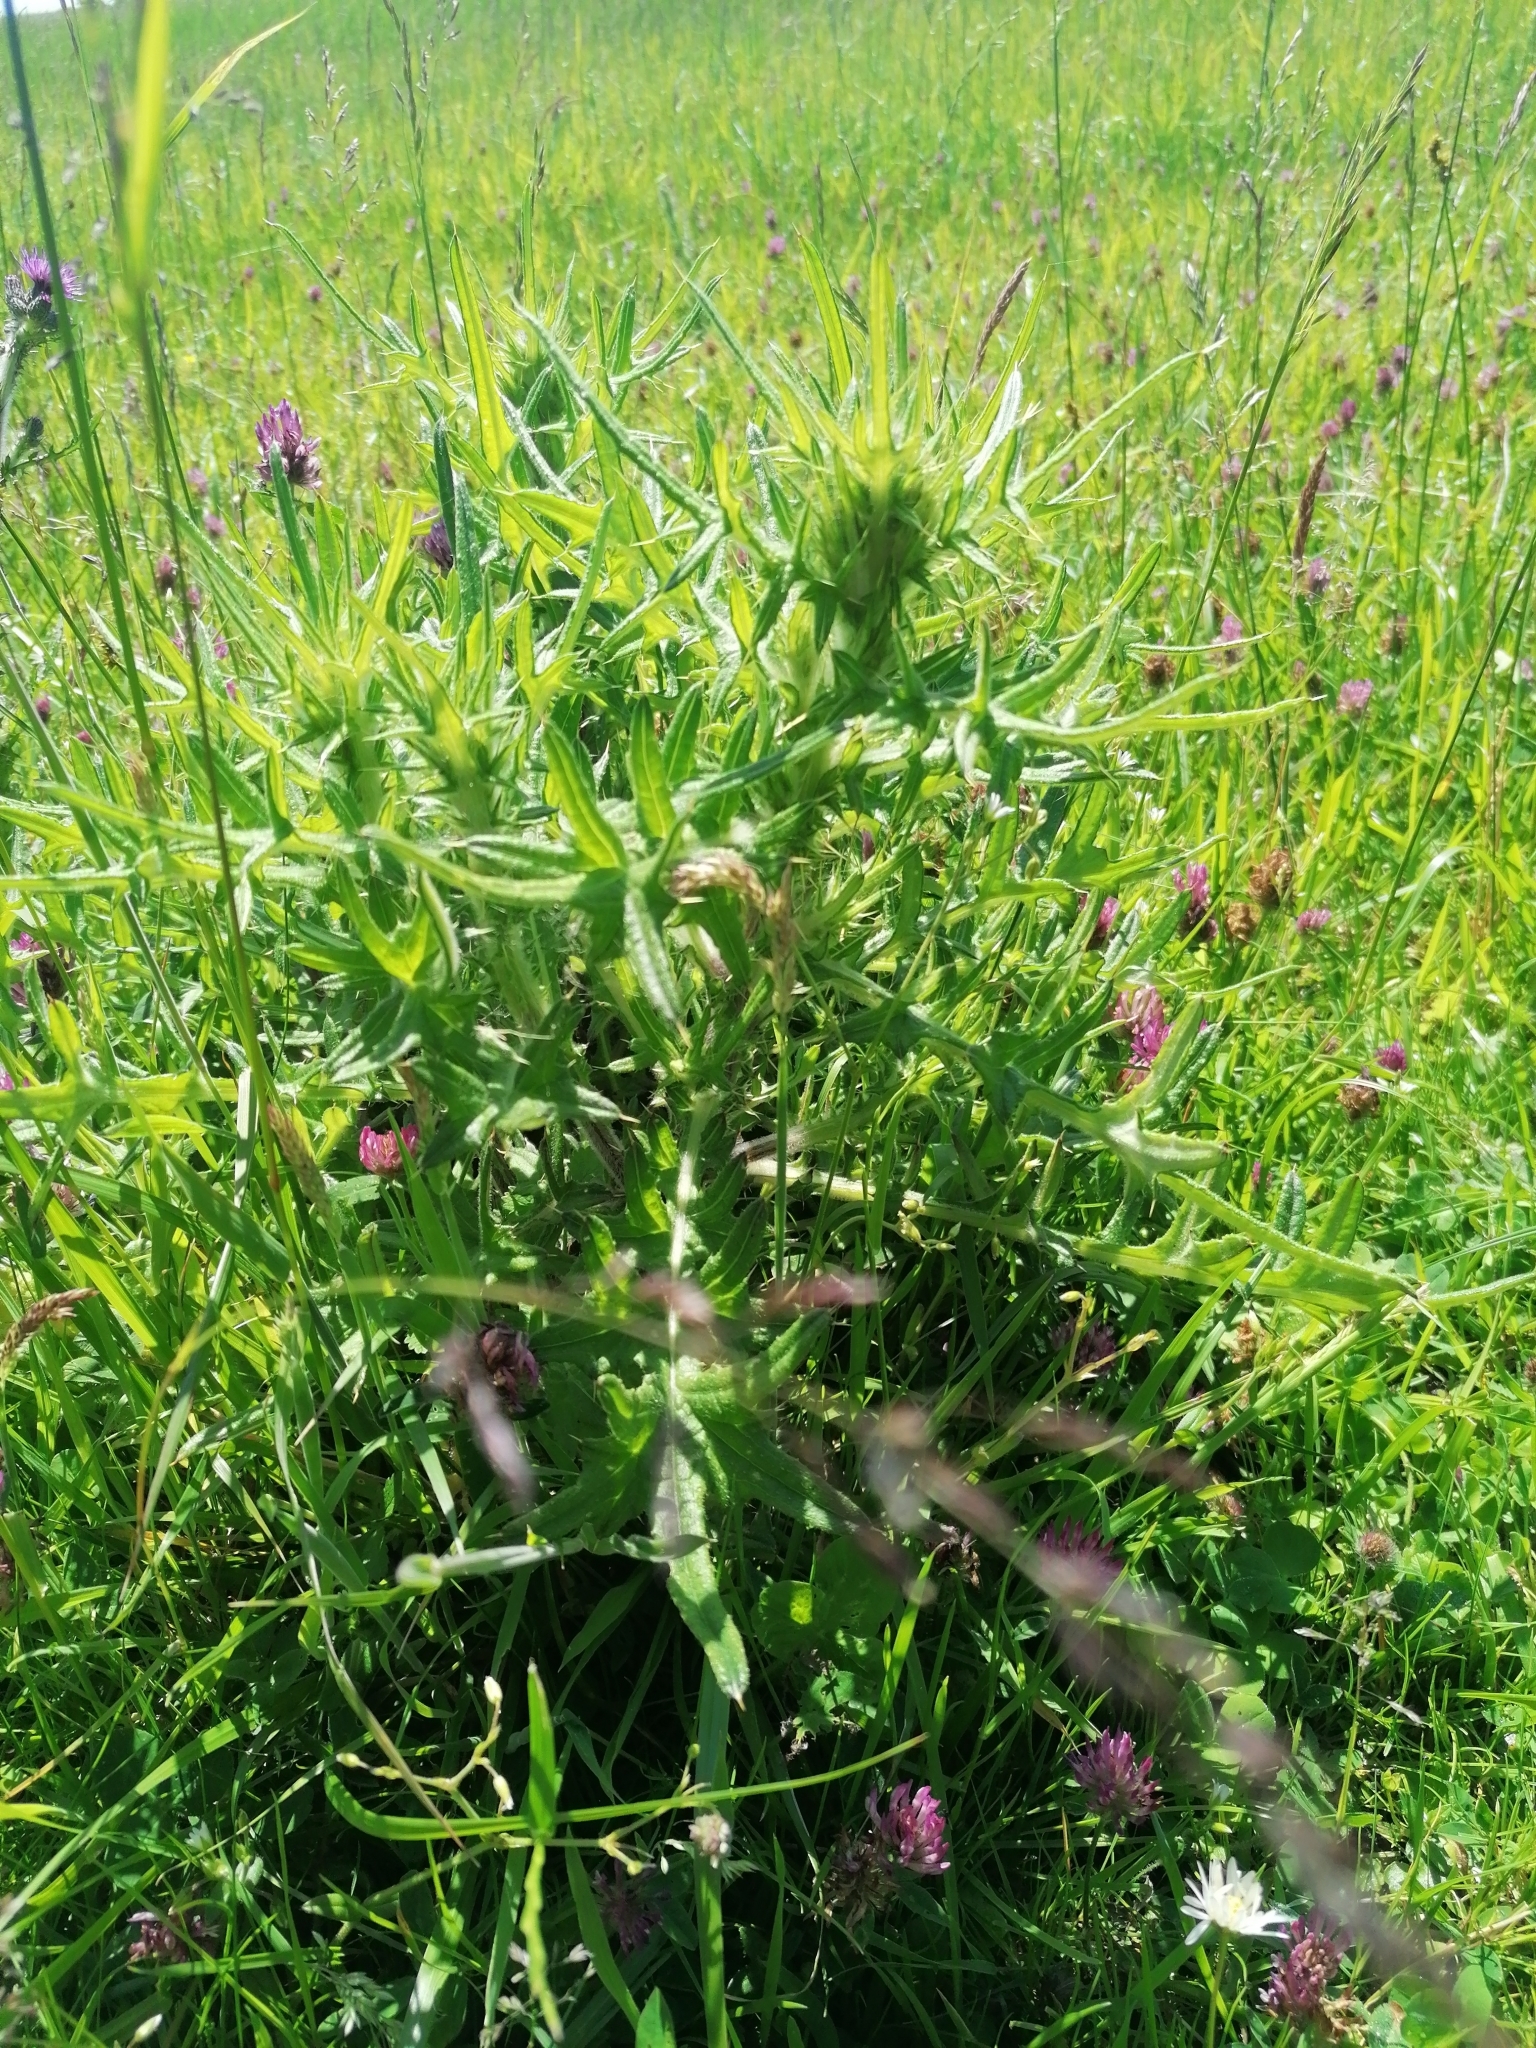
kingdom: Plantae
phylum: Tracheophyta
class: Magnoliopsida
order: Asterales
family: Asteraceae
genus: Cirsium
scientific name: Cirsium vulgare
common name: Bull thistle
